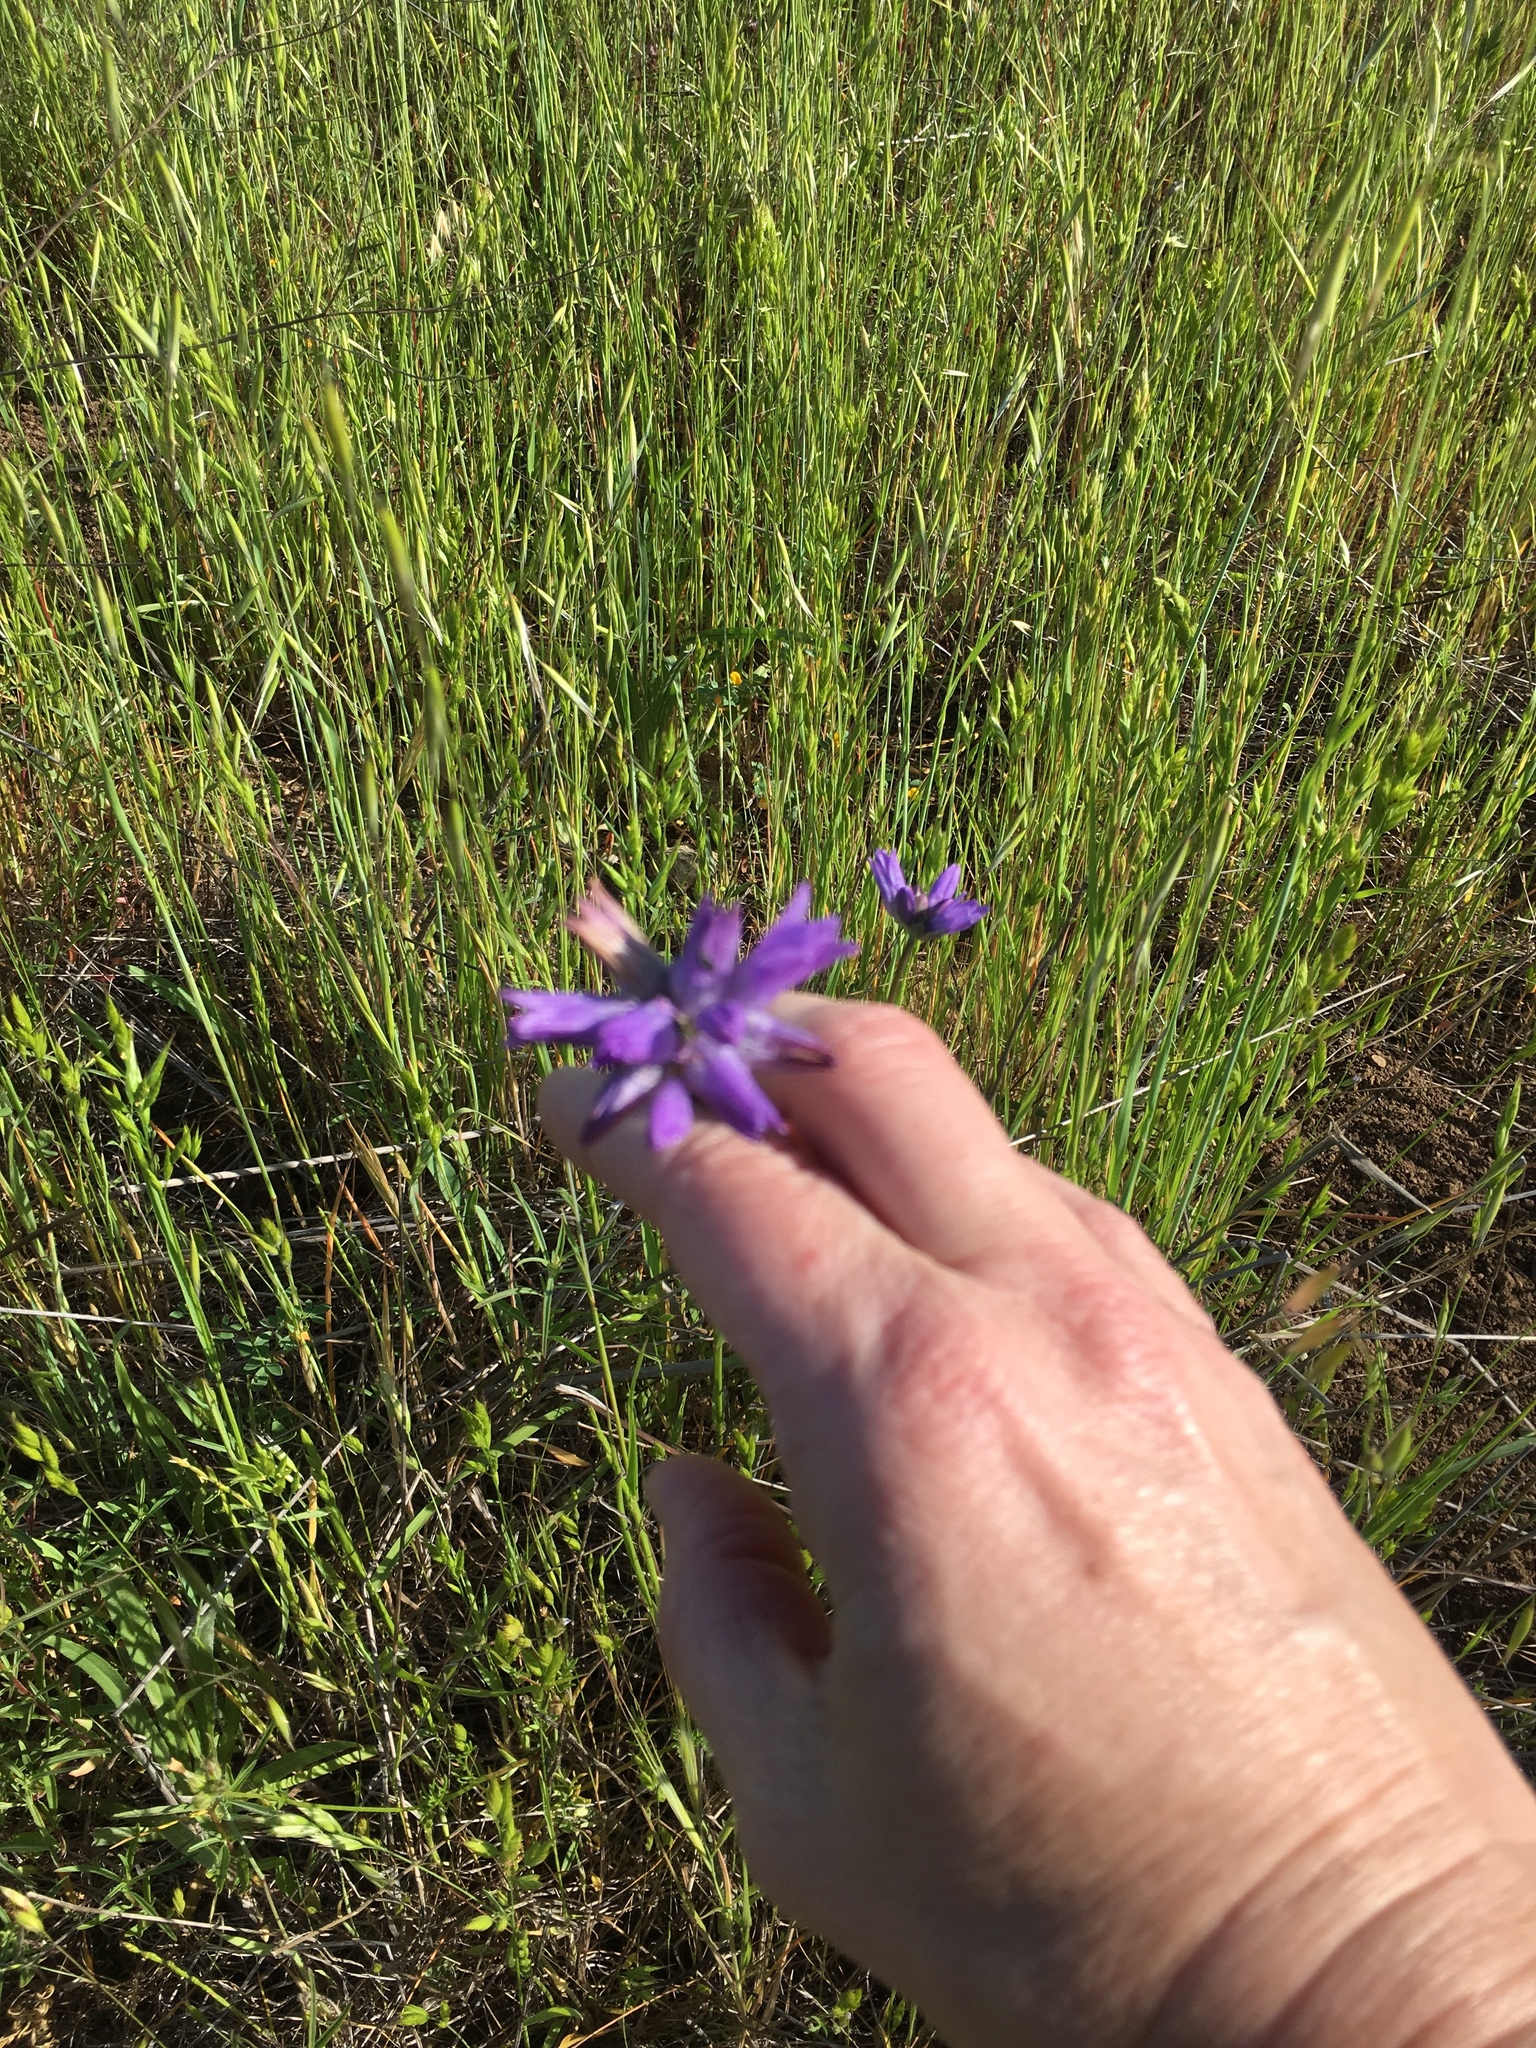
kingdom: Plantae
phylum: Tracheophyta
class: Liliopsida
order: Asparagales
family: Asparagaceae
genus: Dipterostemon
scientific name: Dipterostemon capitatus
